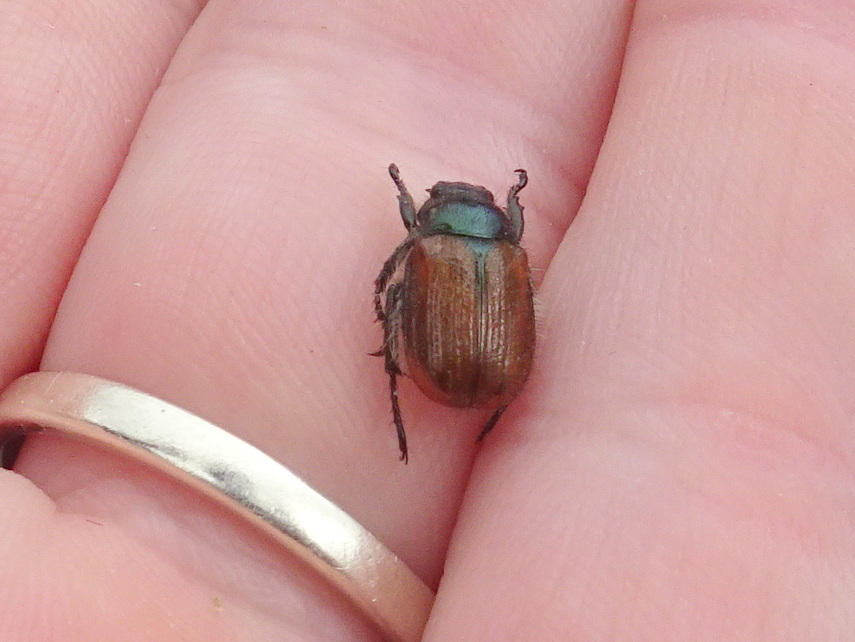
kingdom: Animalia
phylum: Arthropoda
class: Insecta
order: Coleoptera
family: Scarabaeidae
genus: Phyllopertha
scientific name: Phyllopertha horticola
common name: Garden chafer
